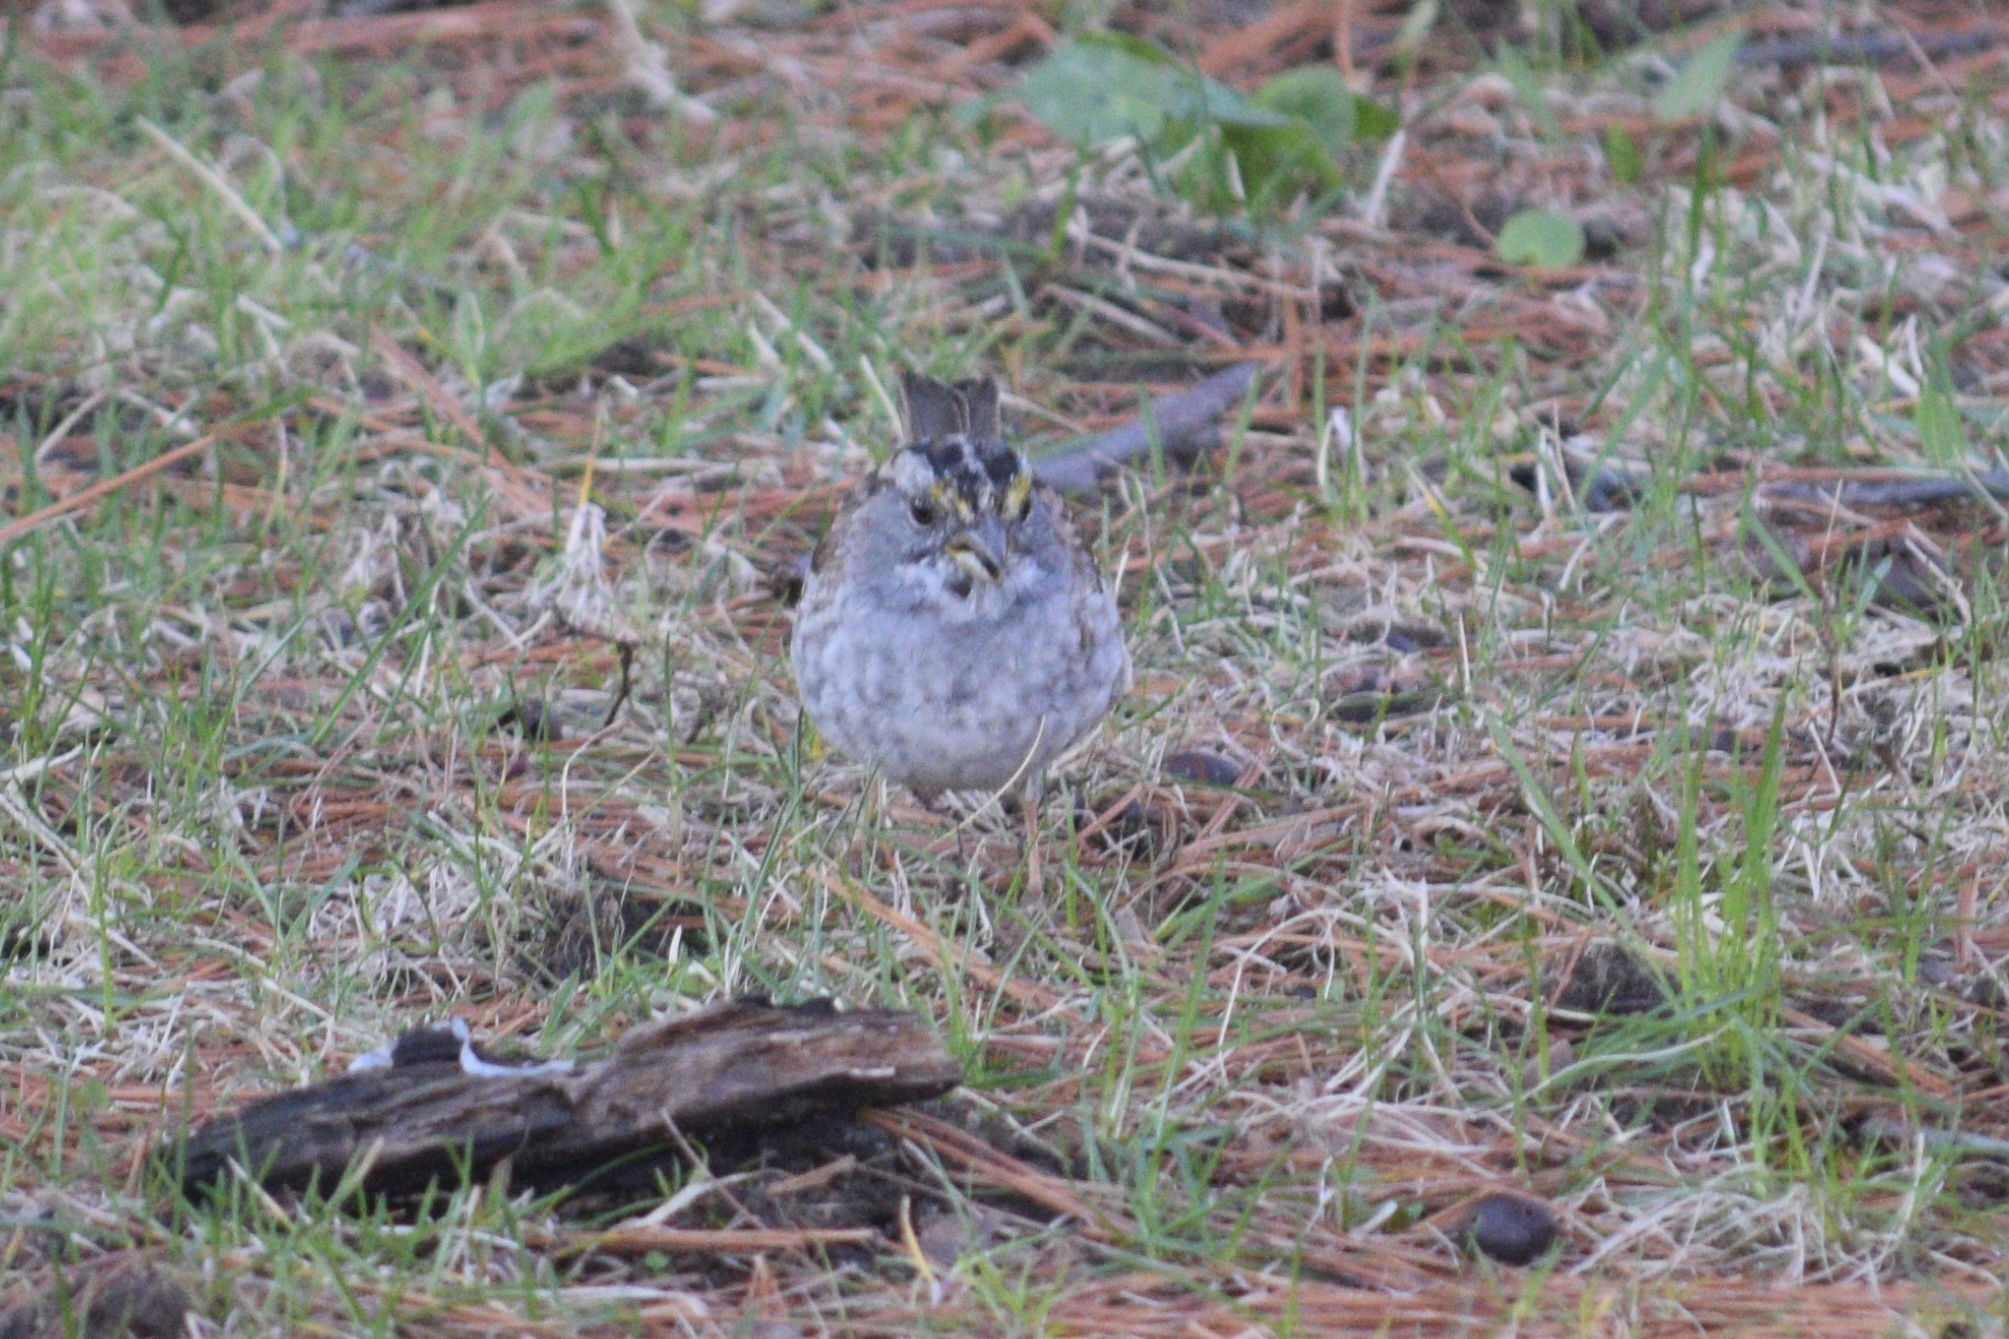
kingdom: Animalia
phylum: Chordata
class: Aves
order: Passeriformes
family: Passerellidae
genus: Zonotrichia
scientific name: Zonotrichia albicollis
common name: White-throated sparrow
